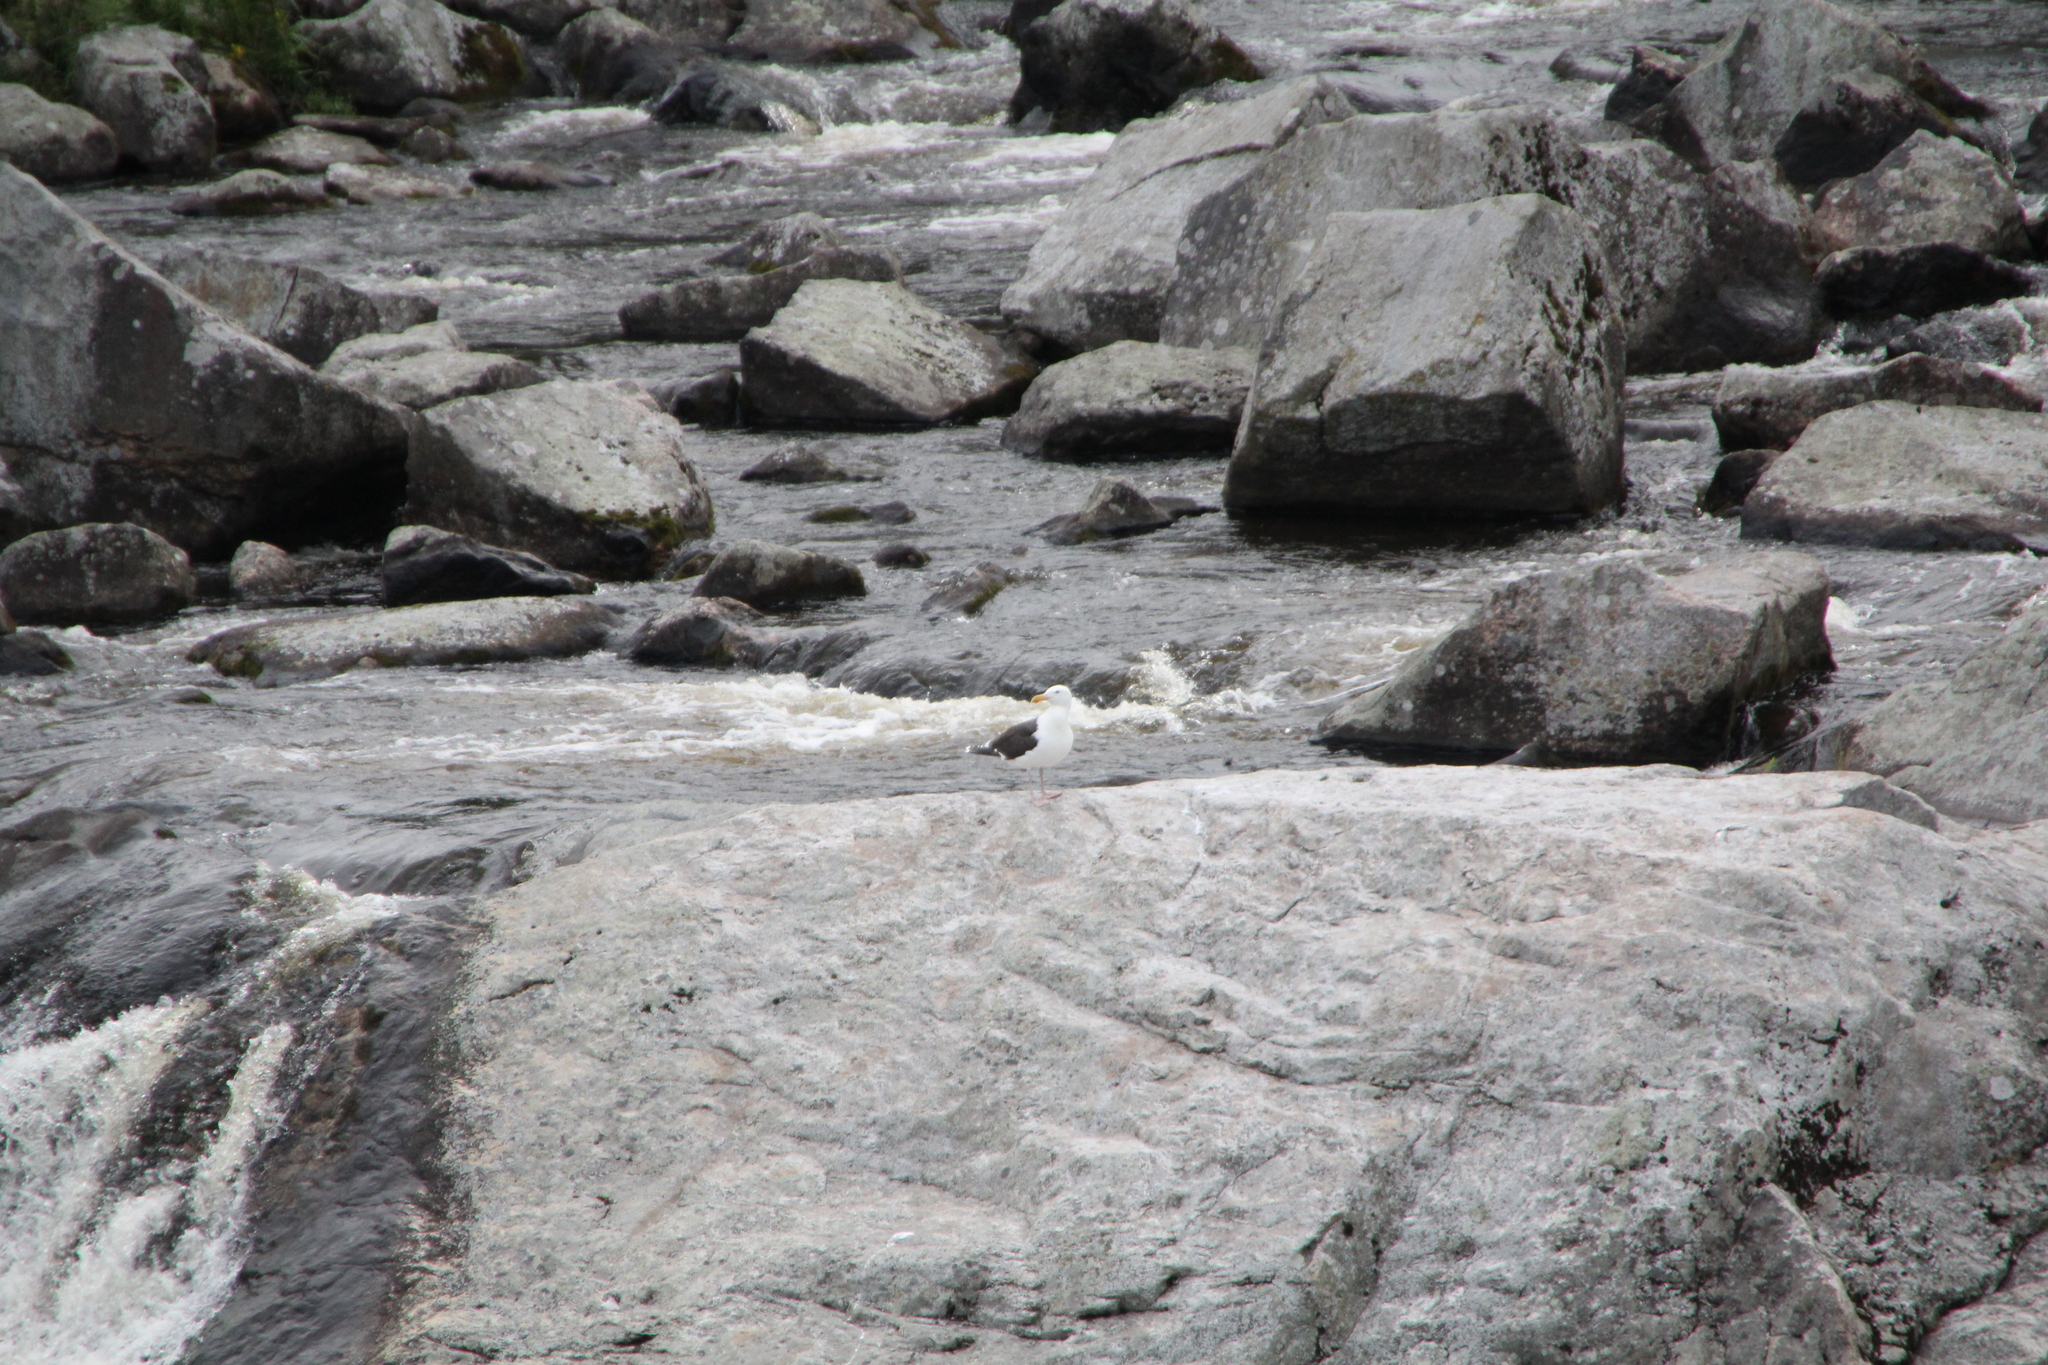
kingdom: Animalia
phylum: Chordata
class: Aves
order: Charadriiformes
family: Laridae
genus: Larus
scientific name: Larus marinus
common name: Great black-backed gull
